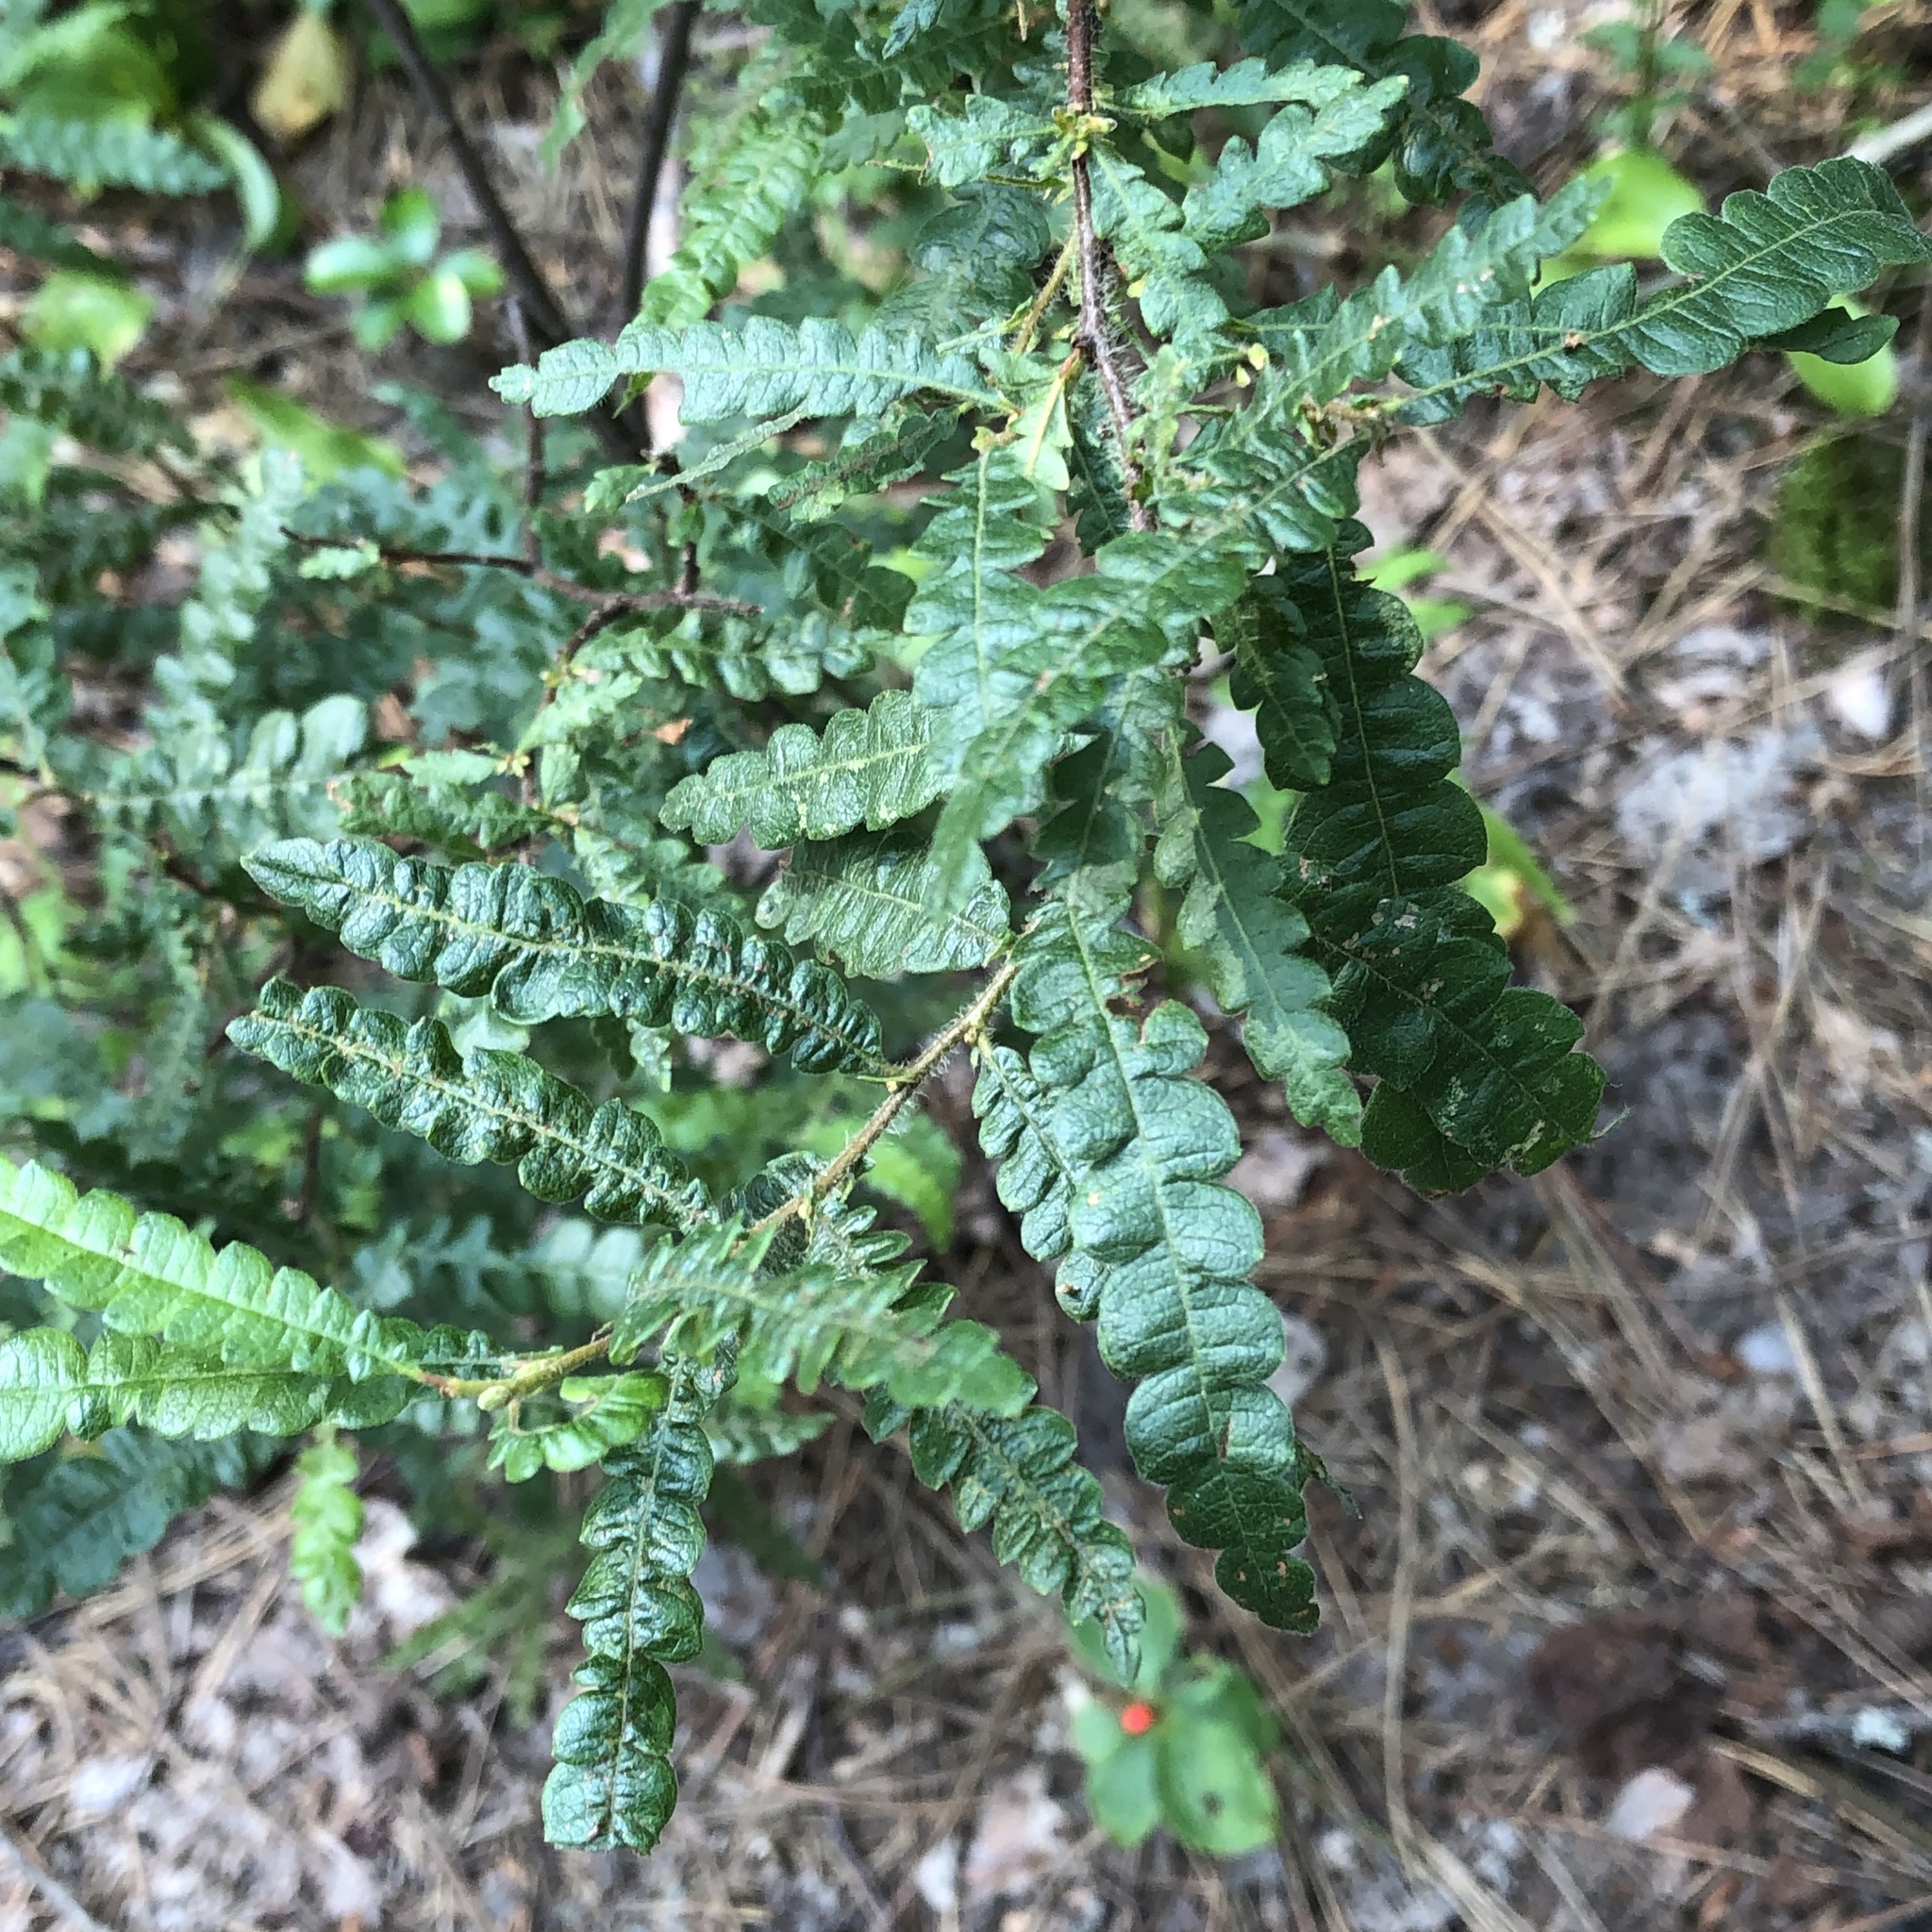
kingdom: Plantae
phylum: Tracheophyta
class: Magnoliopsida
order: Fagales
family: Myricaceae
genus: Comptonia
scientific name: Comptonia peregrina
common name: Sweet-fern
